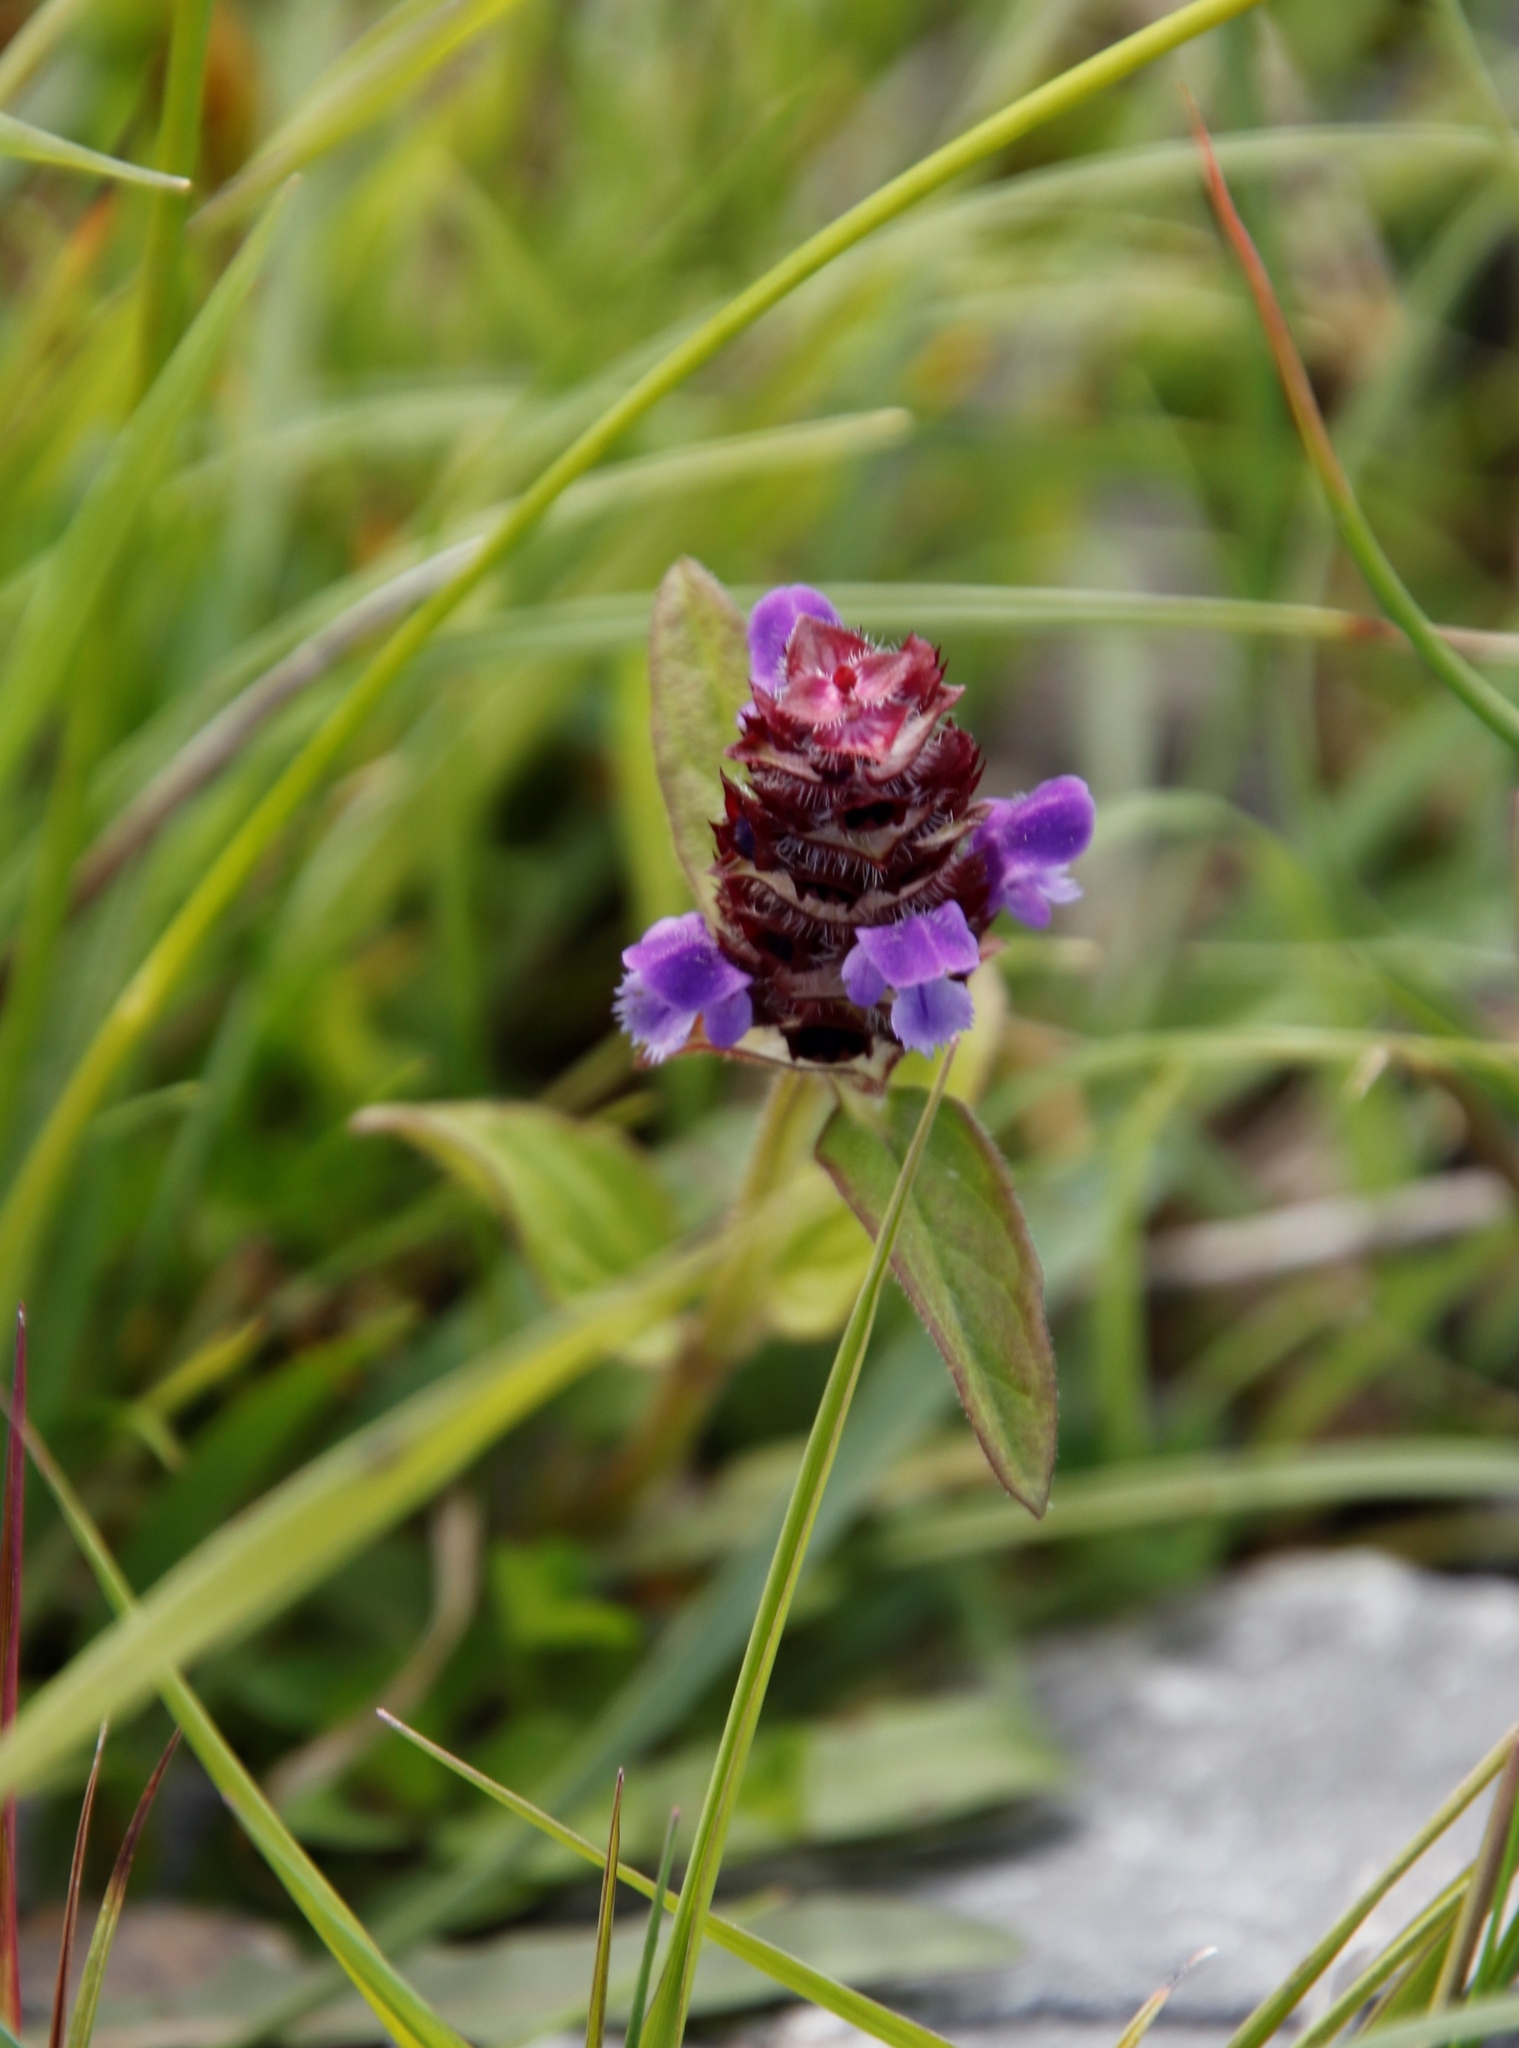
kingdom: Plantae
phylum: Tracheophyta
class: Magnoliopsida
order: Lamiales
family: Lamiaceae
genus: Prunella
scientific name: Prunella vulgaris
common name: Heal-all
